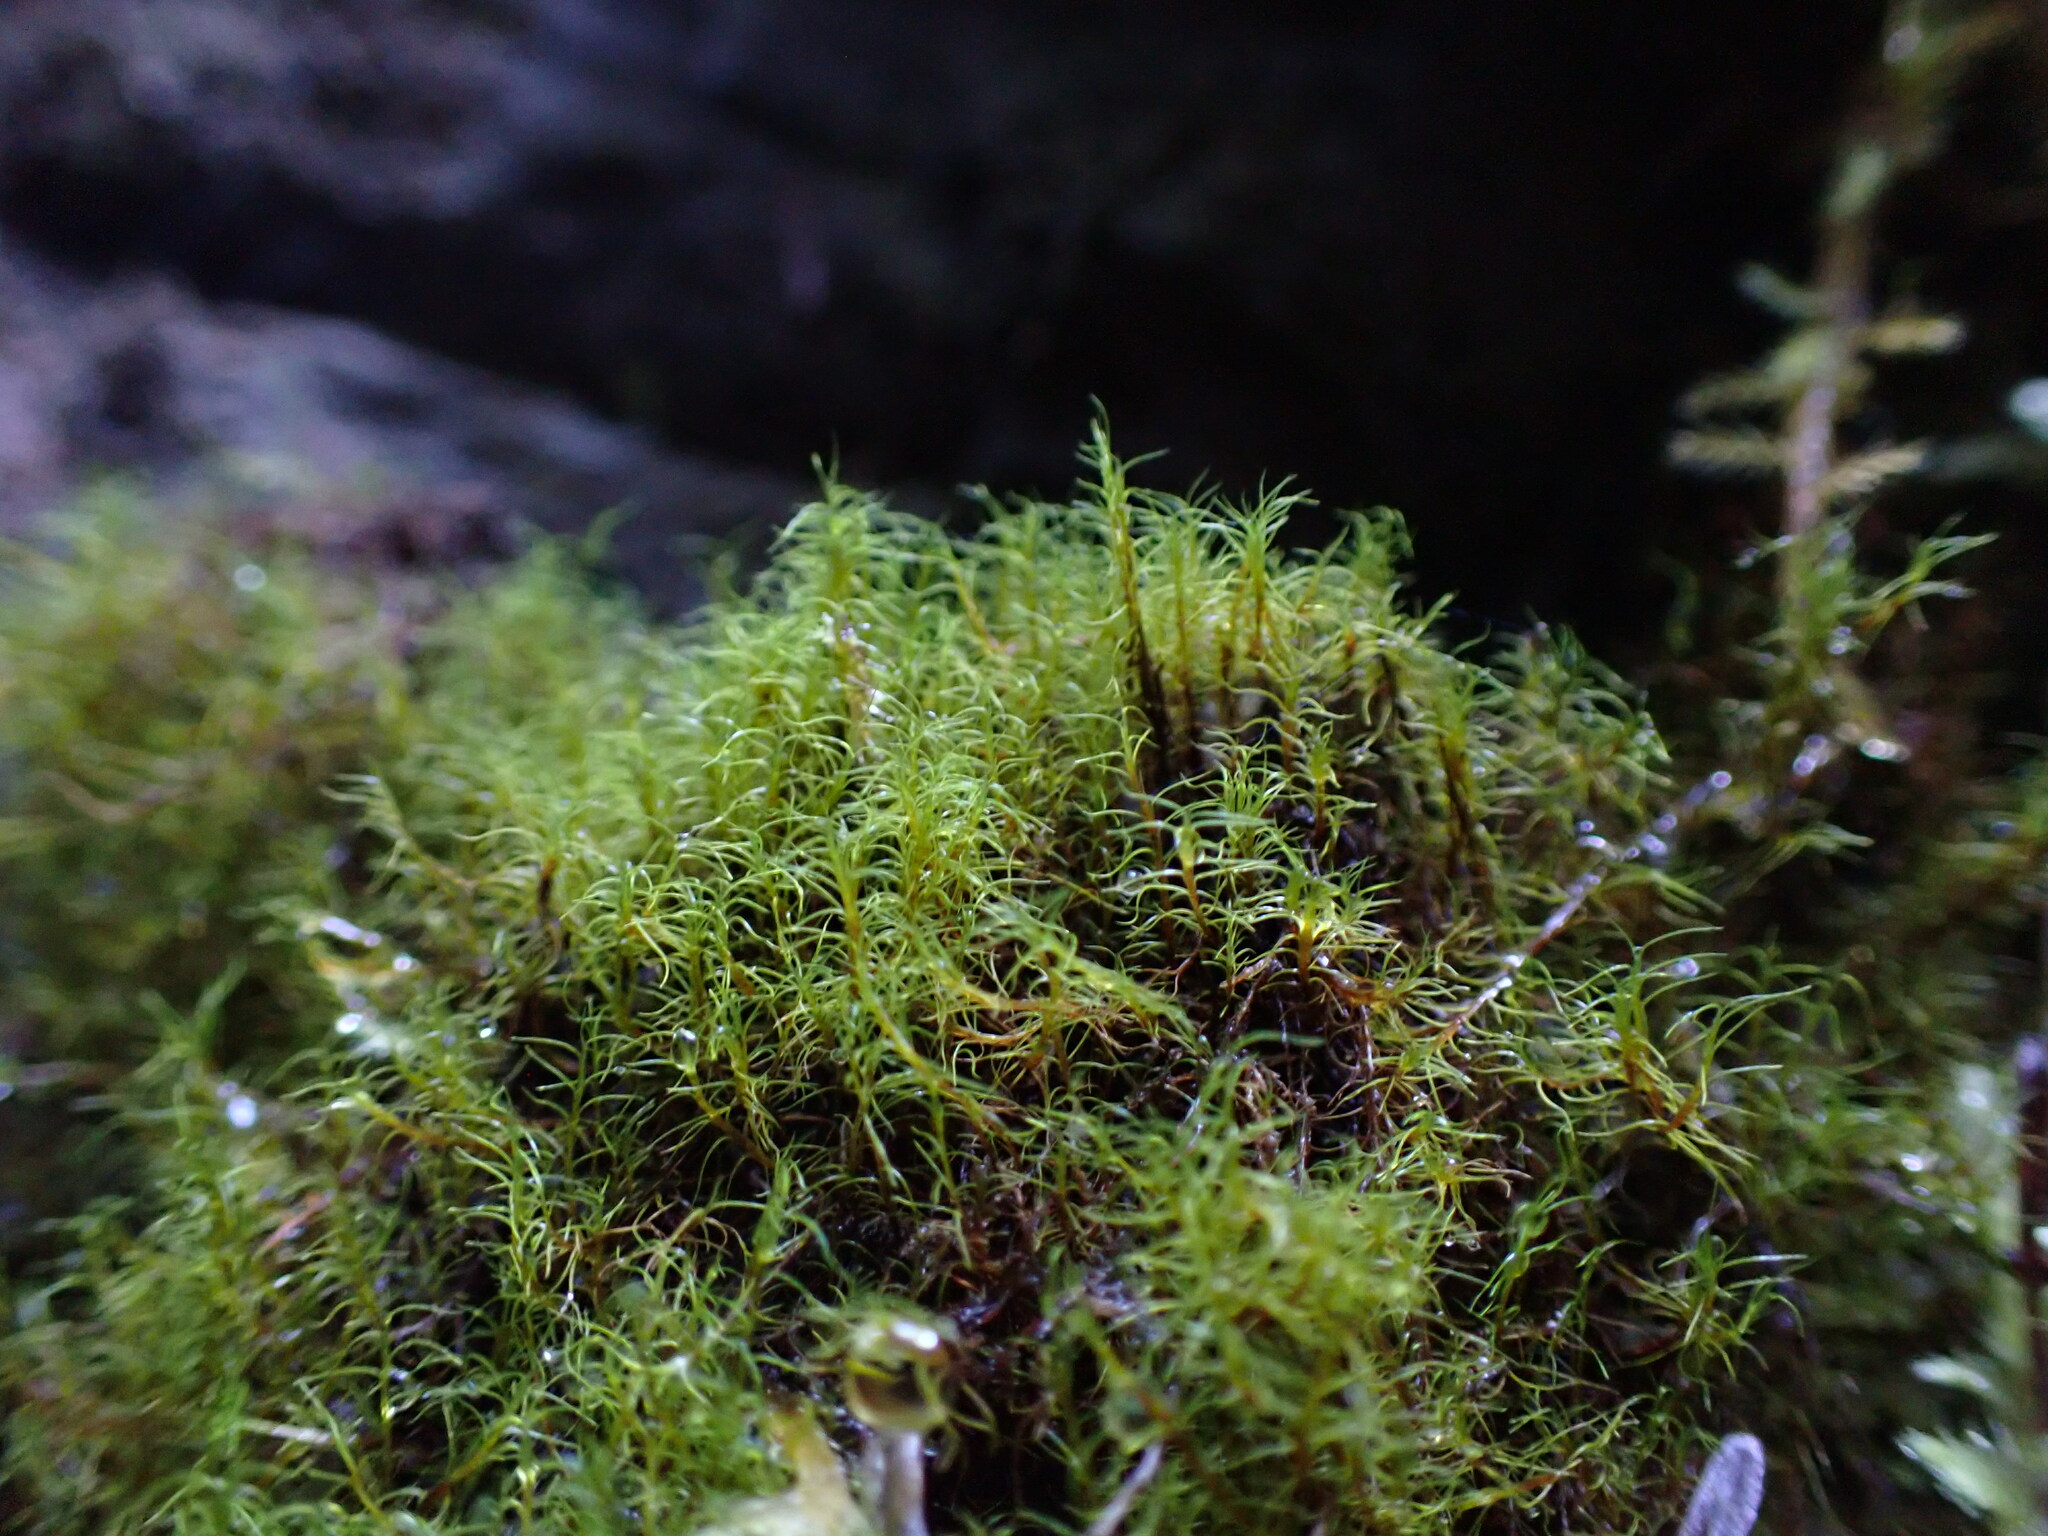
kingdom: Plantae
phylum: Bryophyta
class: Bryopsida
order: Scouleriales
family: Distichiaceae
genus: Distichium
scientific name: Distichium capillaceum
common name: Erect-fruited iris moss
